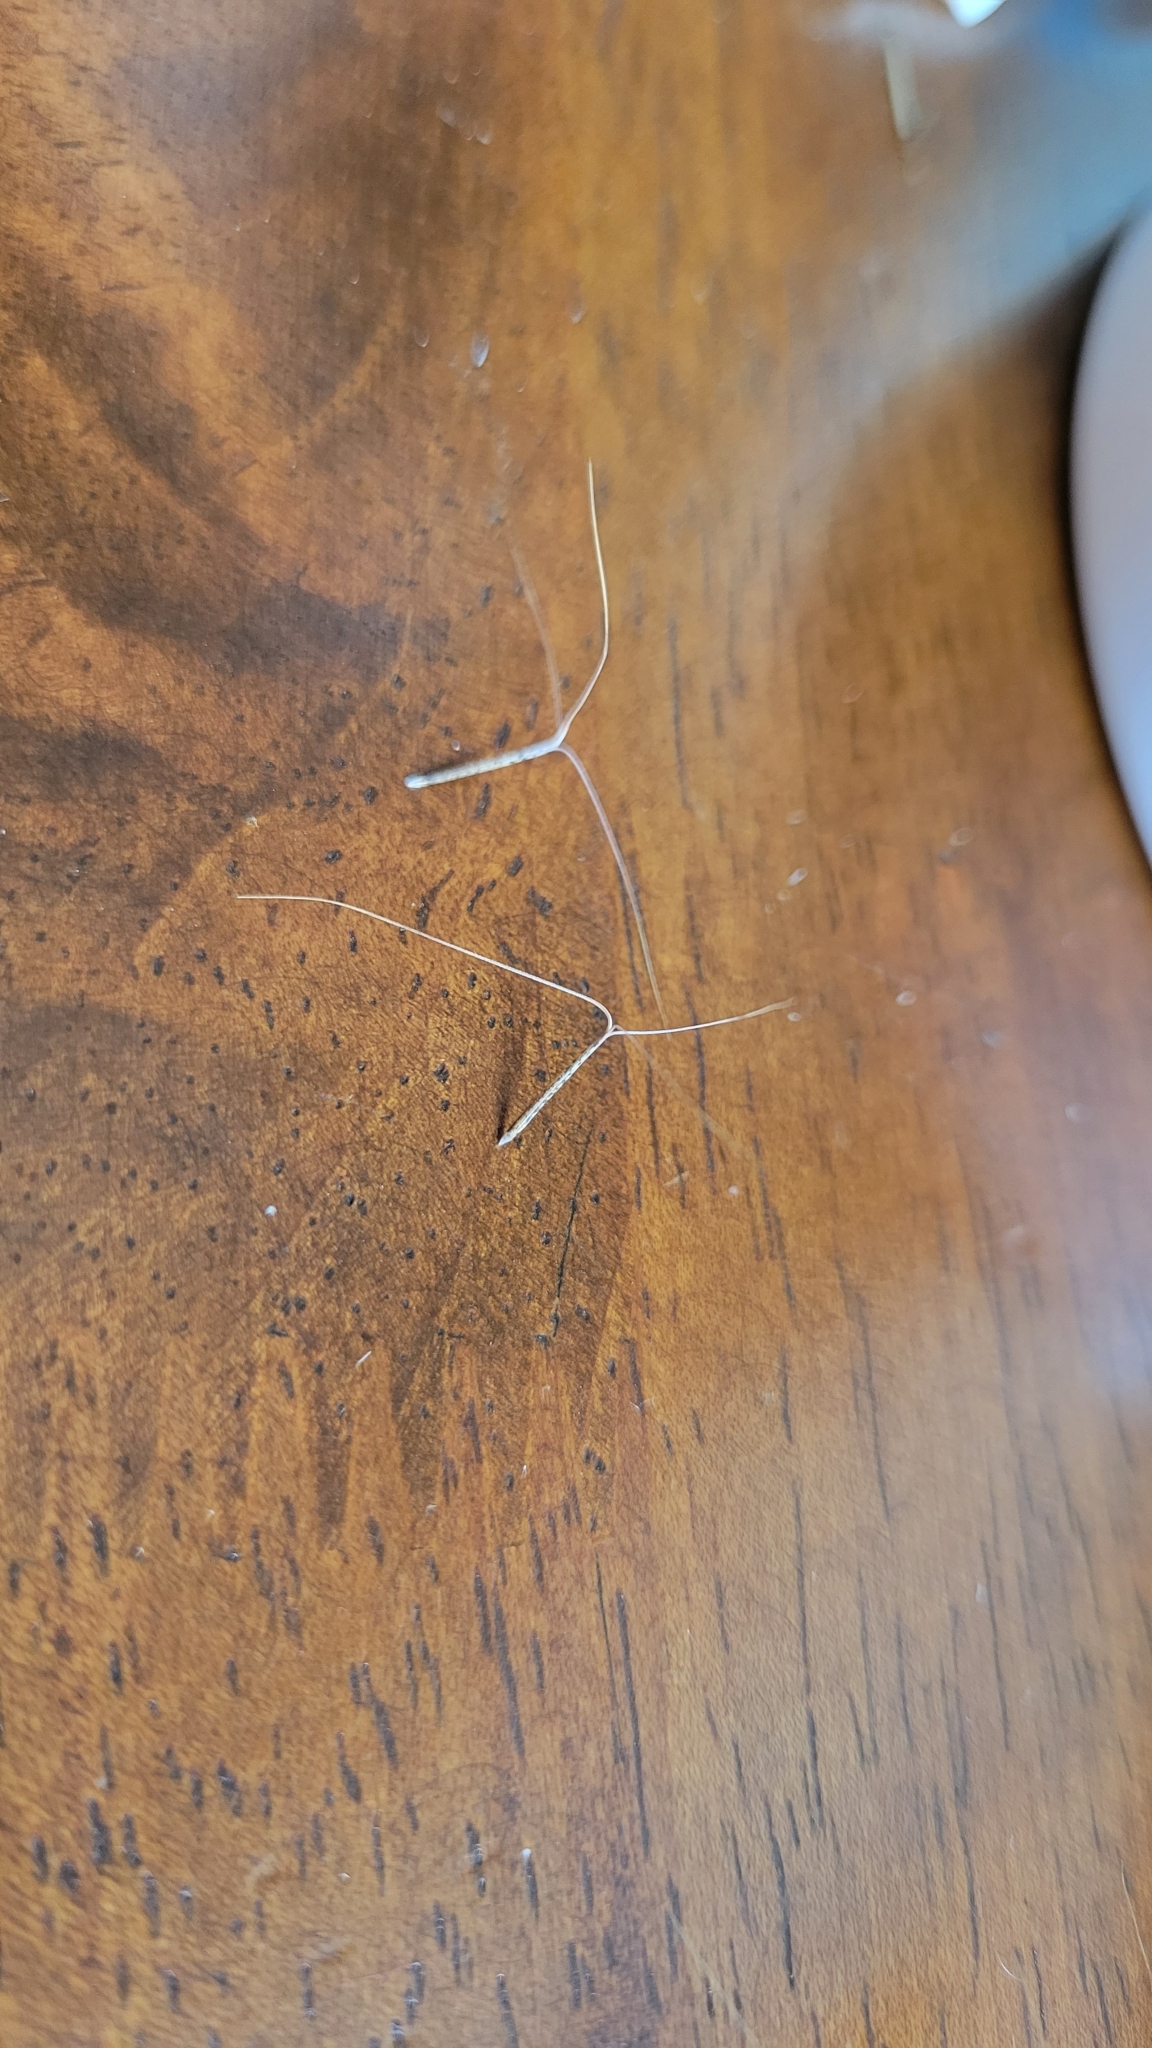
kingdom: Plantae
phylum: Tracheophyta
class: Liliopsida
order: Poales
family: Poaceae
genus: Aristida
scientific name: Aristida purpurascens
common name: Arrow-feather
